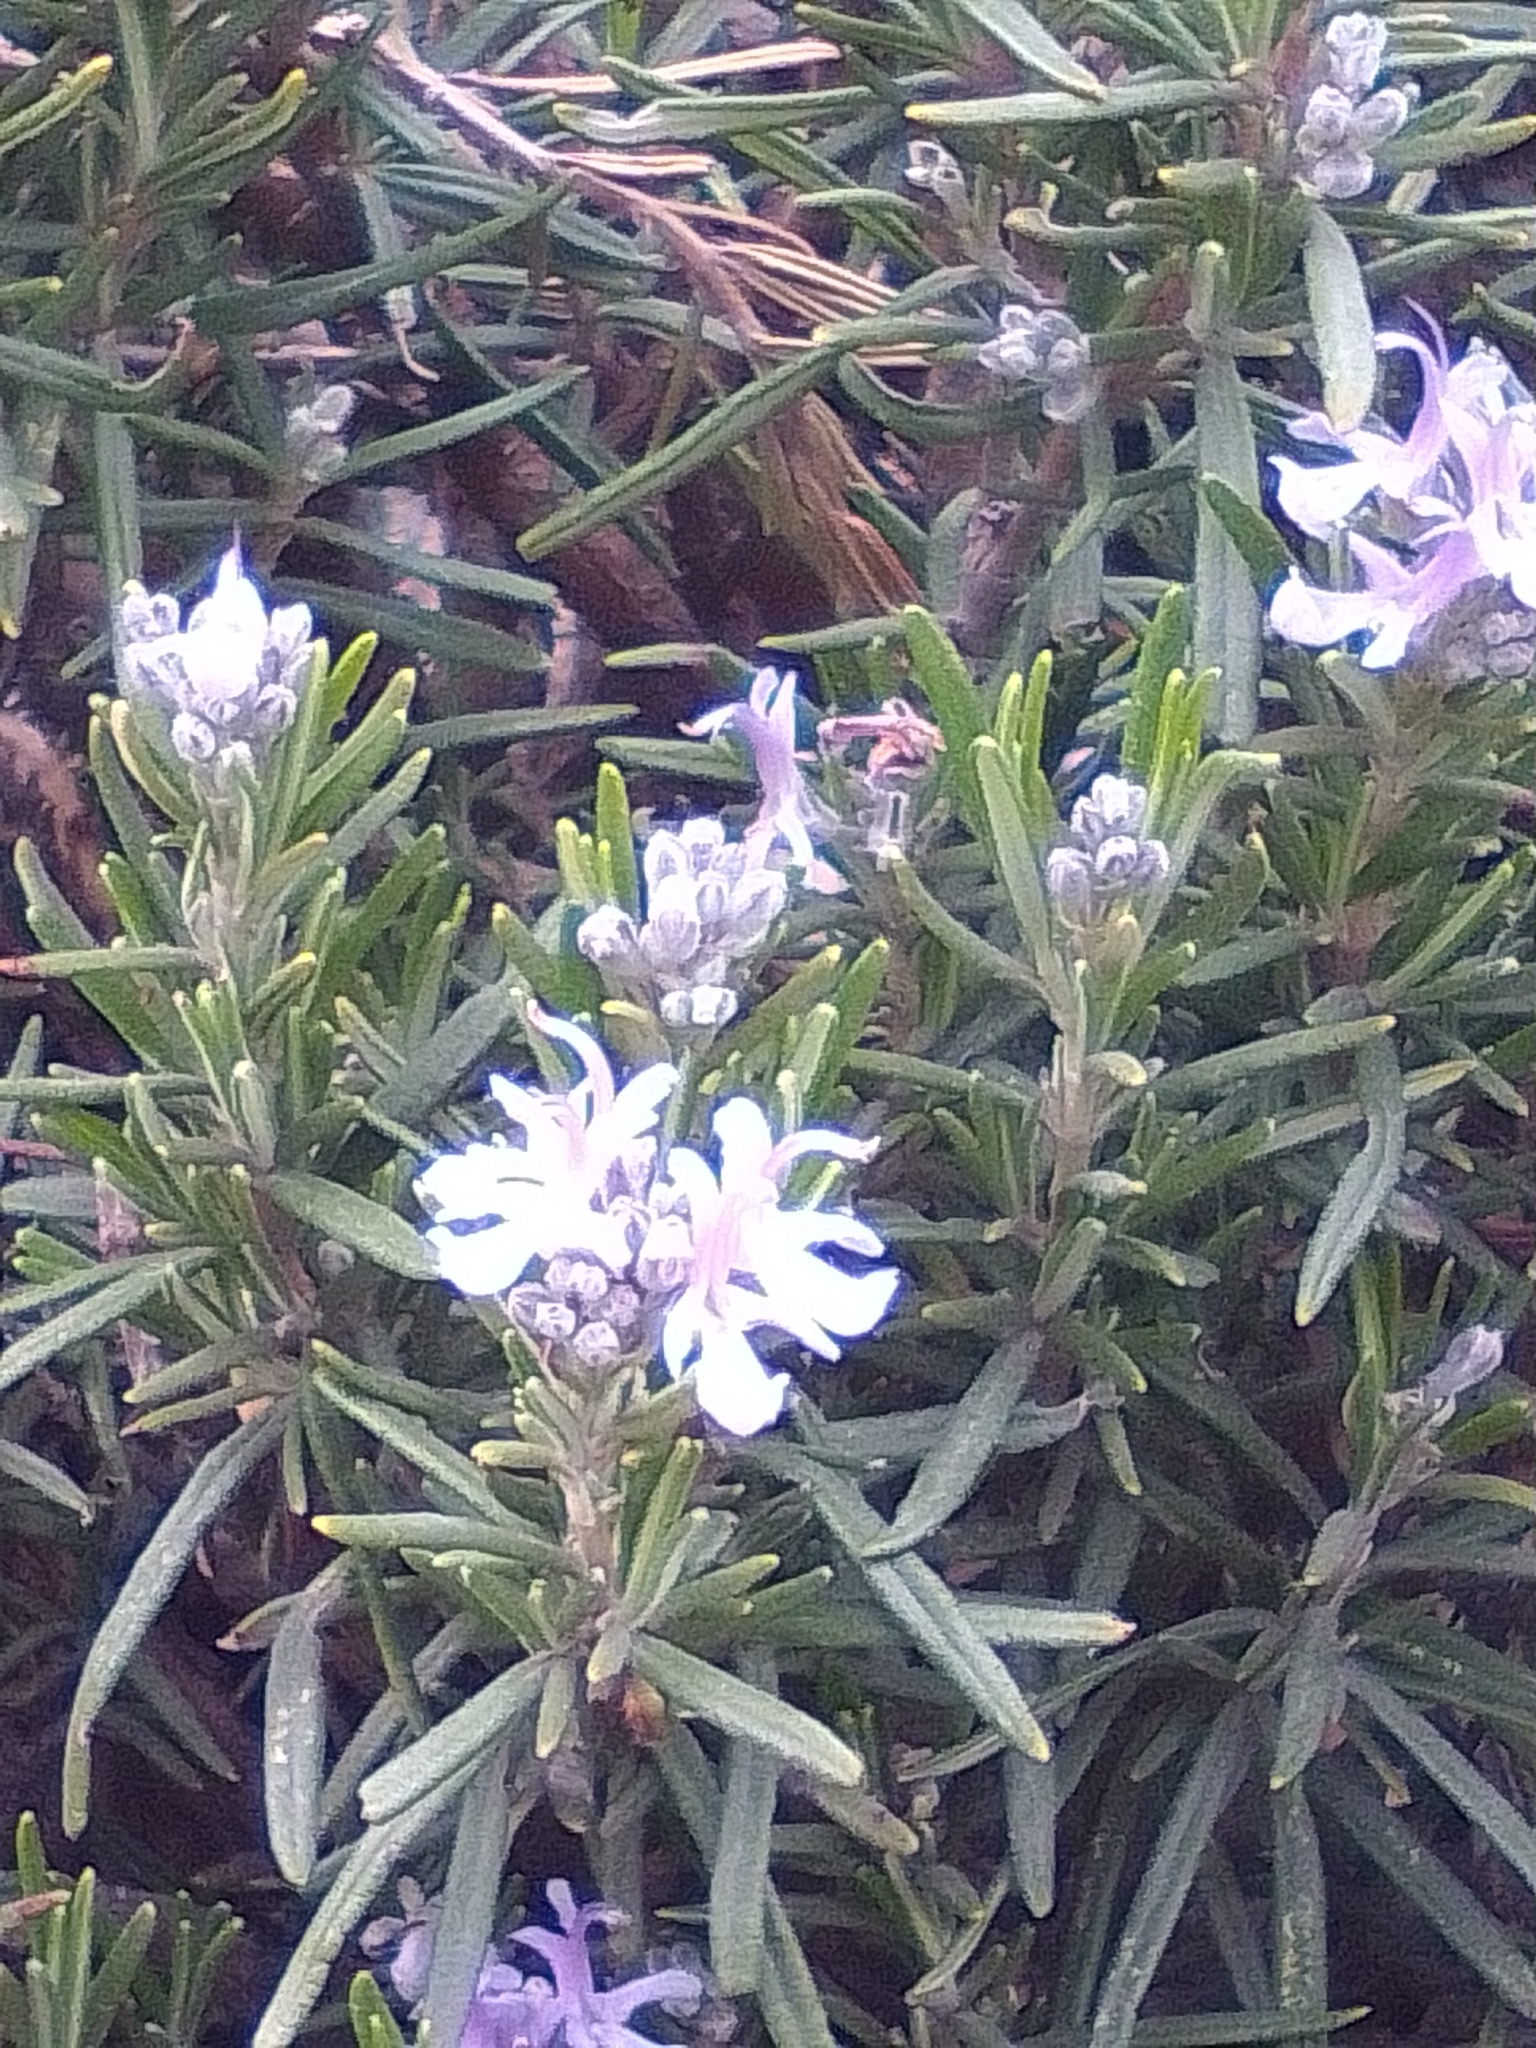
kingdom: Plantae
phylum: Tracheophyta
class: Magnoliopsida
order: Lamiales
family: Lamiaceae
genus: Salvia
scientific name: Salvia rosmarinus
